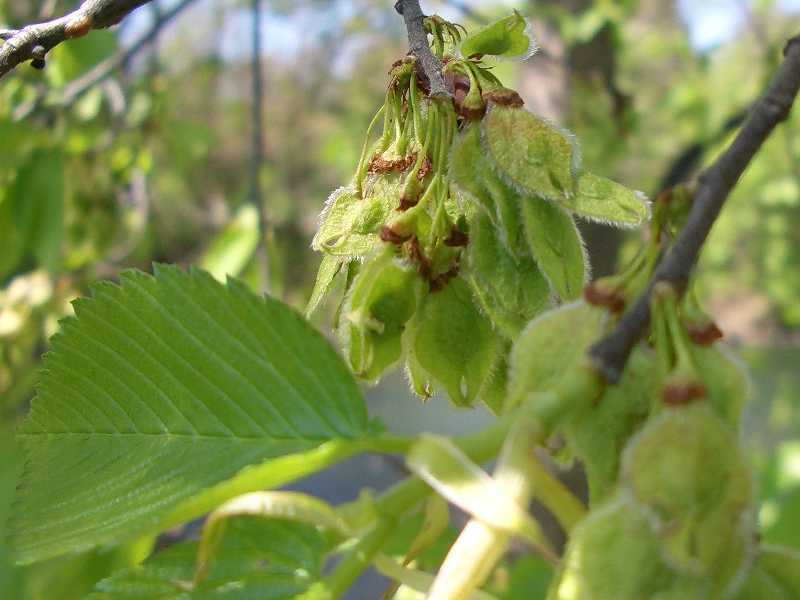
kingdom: Plantae
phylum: Tracheophyta
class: Magnoliopsida
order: Rosales
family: Ulmaceae
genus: Ulmus
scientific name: Ulmus americana
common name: American elm
